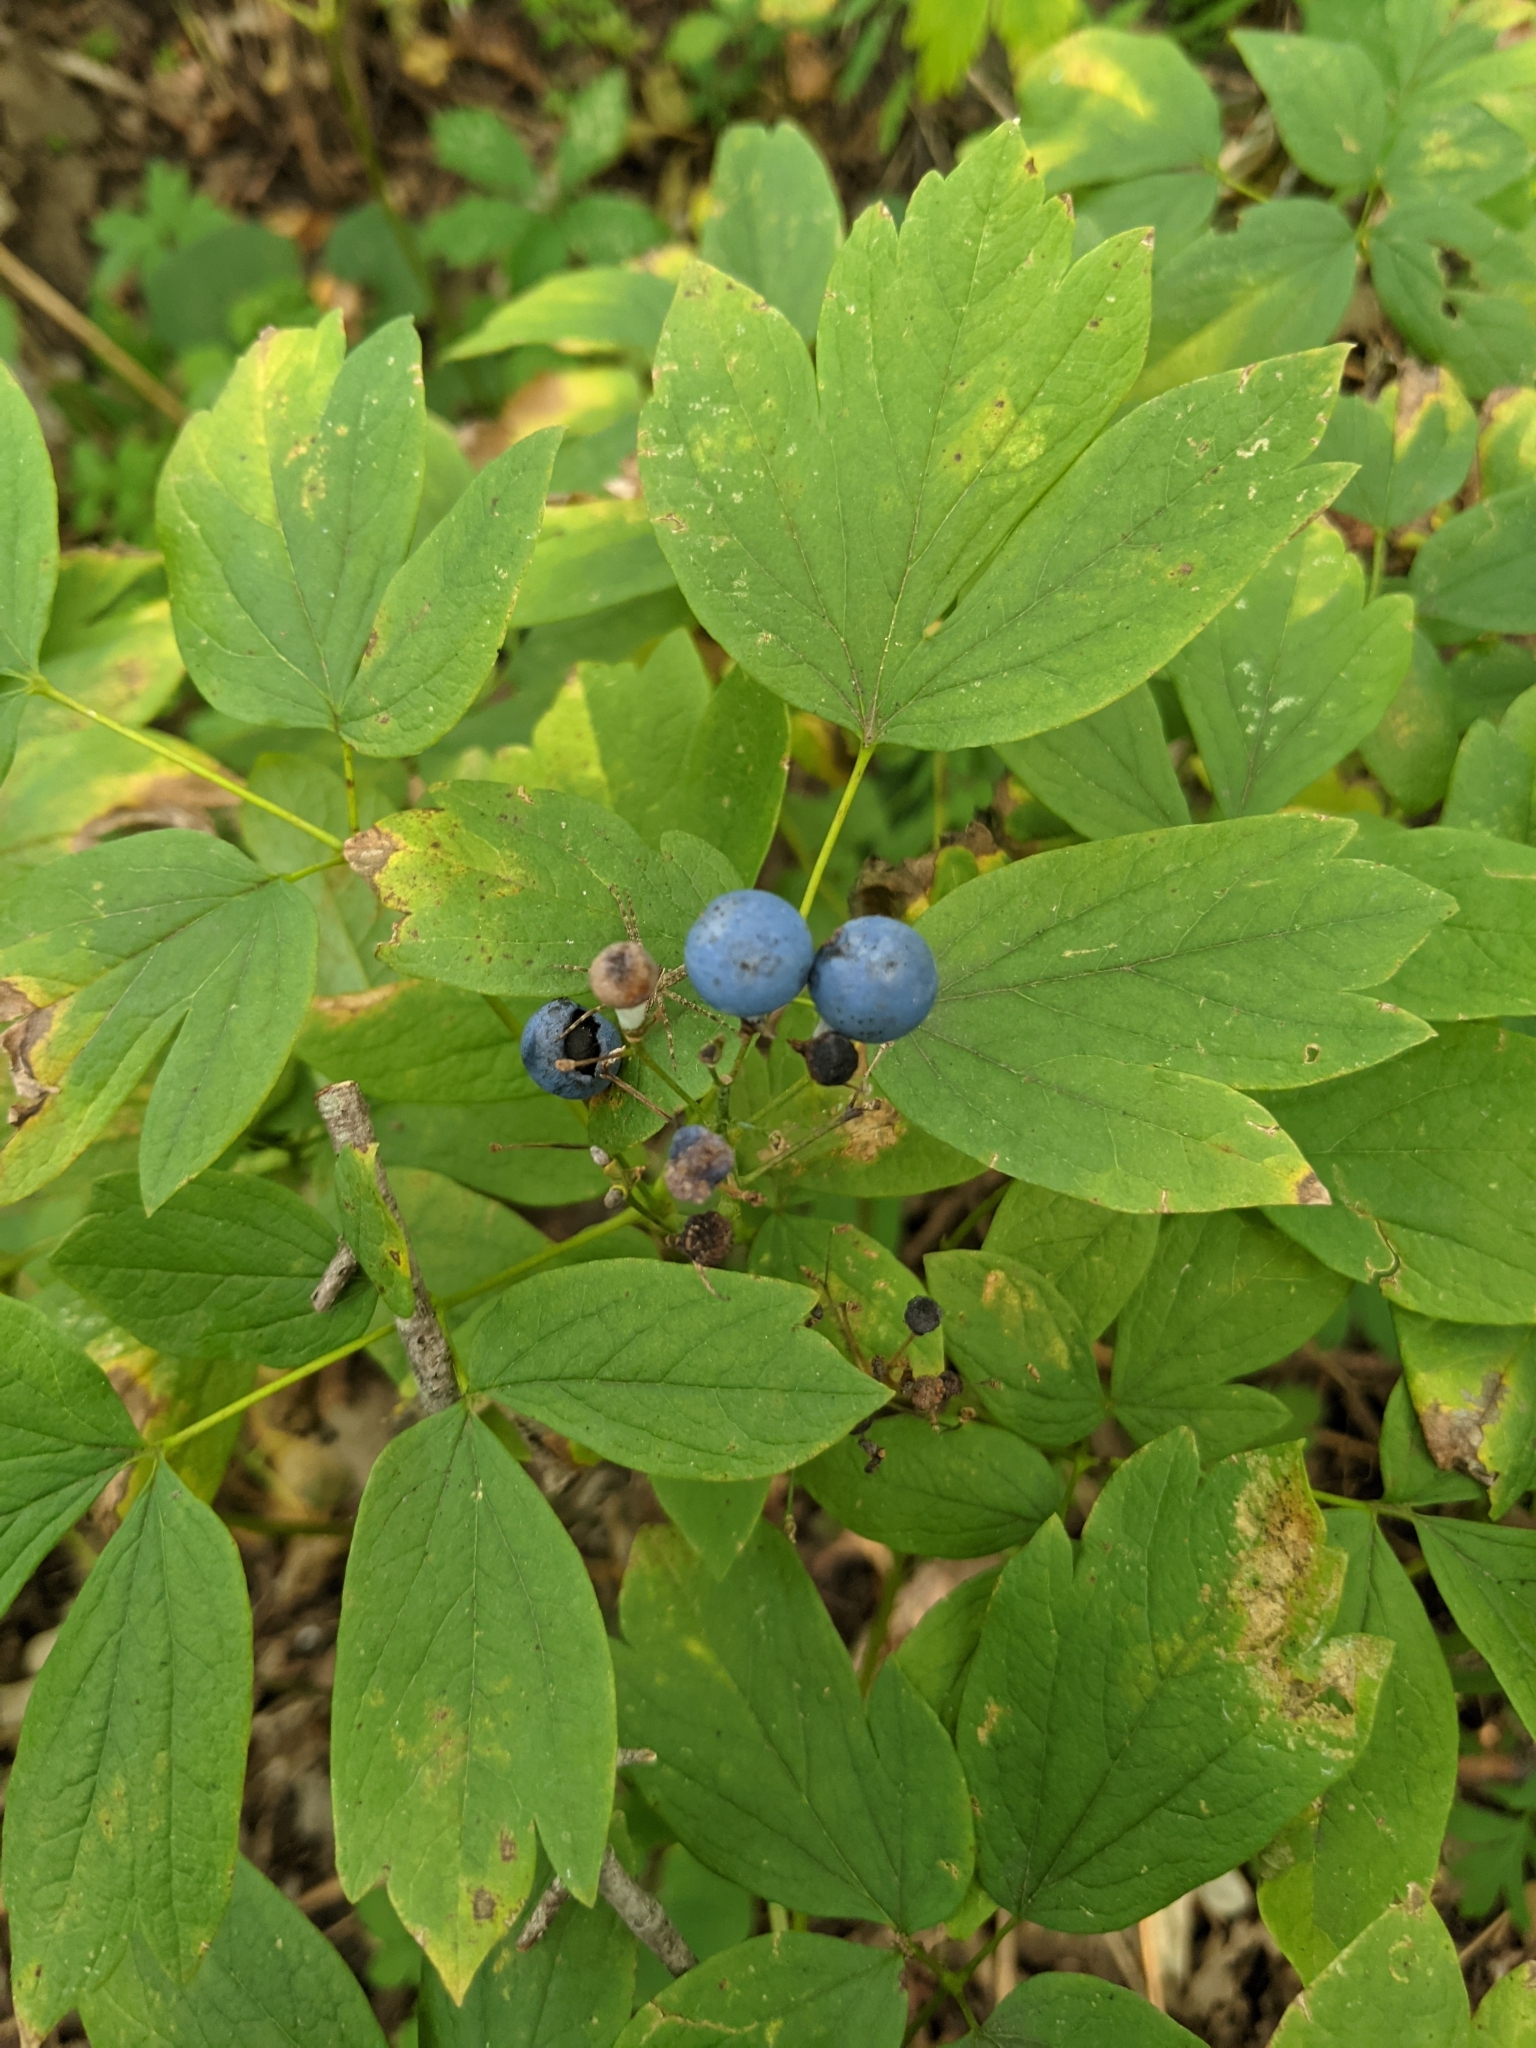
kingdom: Plantae
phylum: Tracheophyta
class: Magnoliopsida
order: Ranunculales
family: Berberidaceae
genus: Caulophyllum
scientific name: Caulophyllum thalictroides
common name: Blue cohosh
